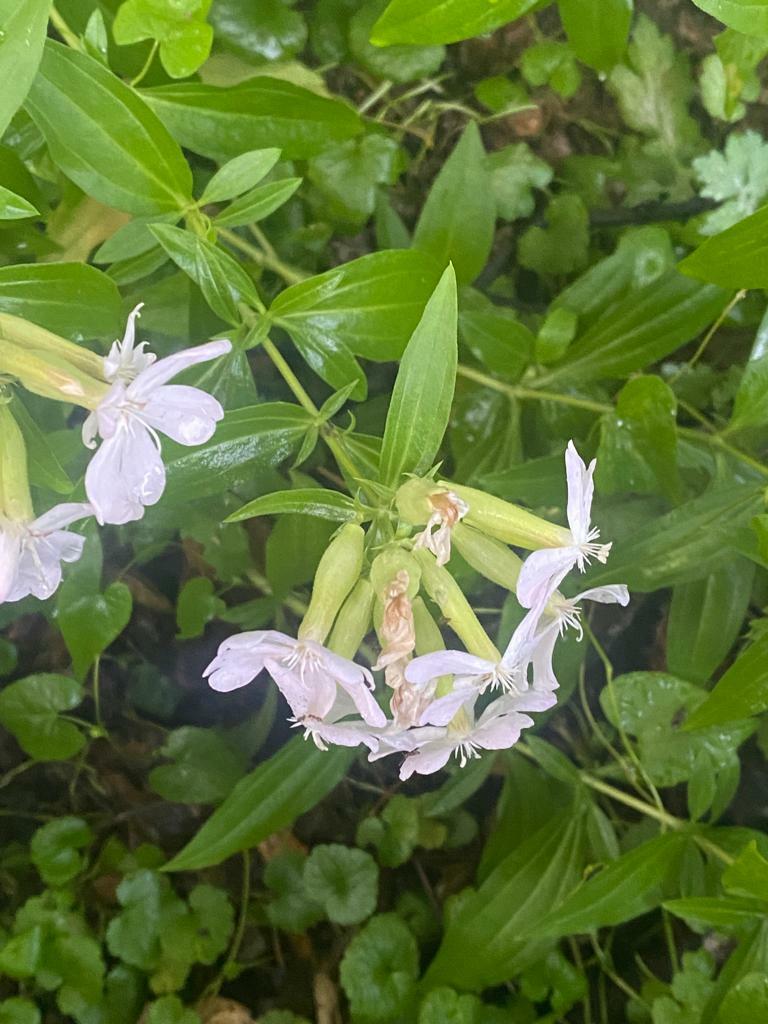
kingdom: Plantae
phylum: Tracheophyta
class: Magnoliopsida
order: Caryophyllales
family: Caryophyllaceae
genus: Saponaria
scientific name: Saponaria officinalis
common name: Soapwort
